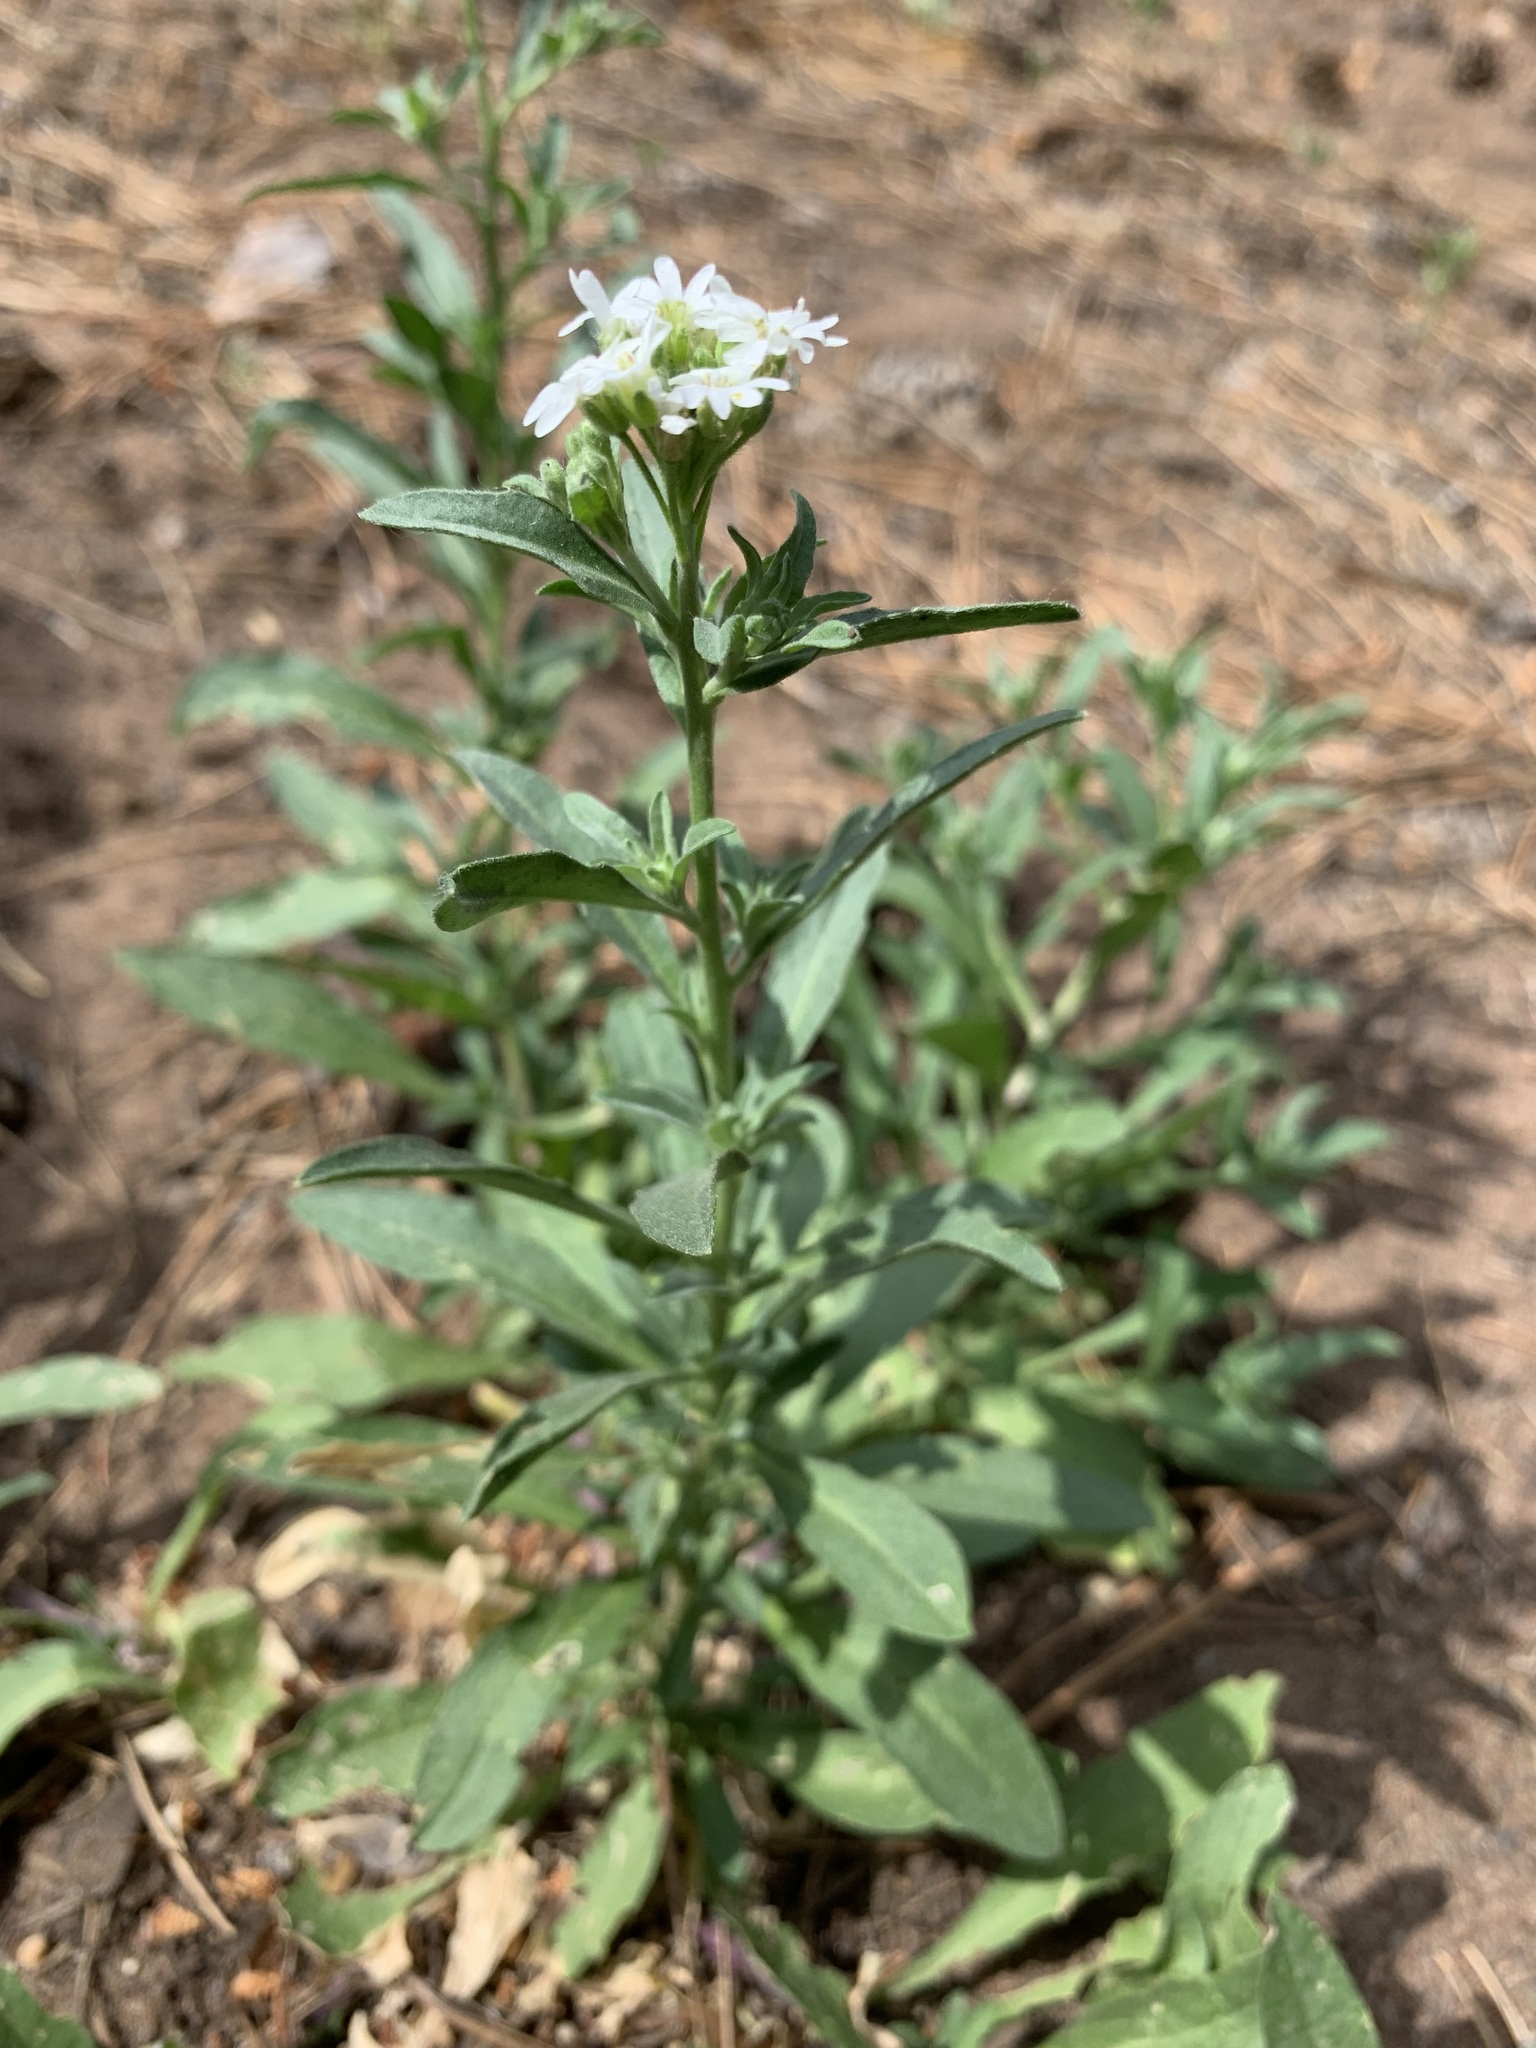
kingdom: Plantae
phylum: Tracheophyta
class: Magnoliopsida
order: Brassicales
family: Brassicaceae
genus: Berteroa
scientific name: Berteroa incana
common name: Hoary alison
